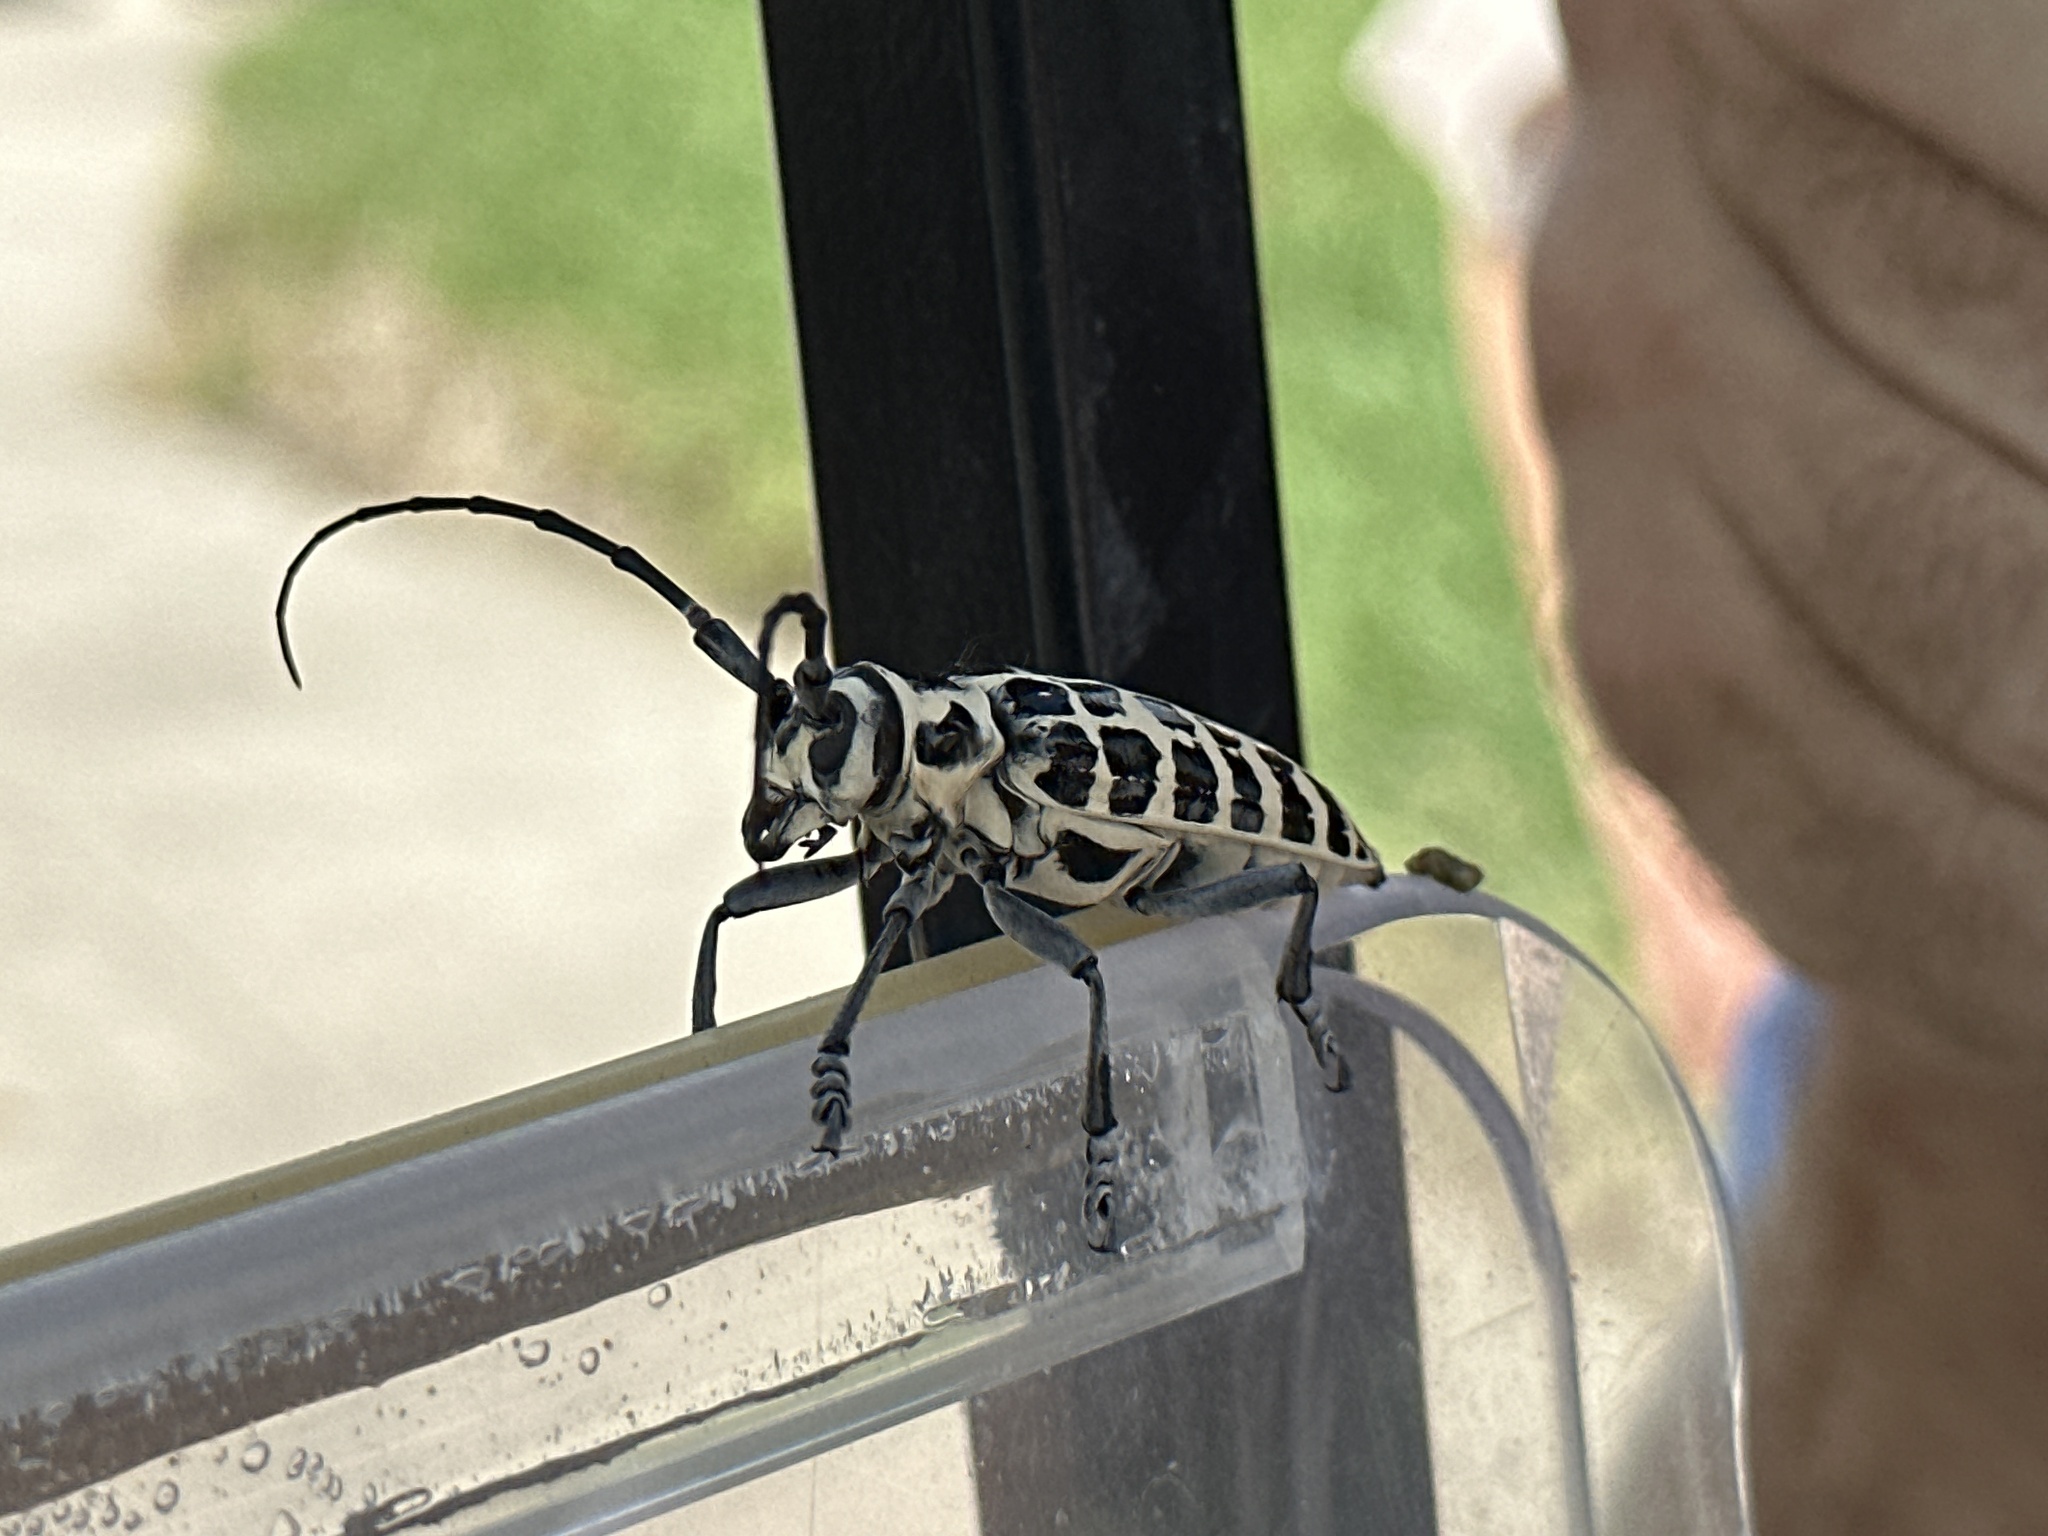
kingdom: Animalia
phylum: Arthropoda
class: Insecta
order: Coleoptera
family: Cerambycidae
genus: Plectrodera
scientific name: Plectrodera scalator
